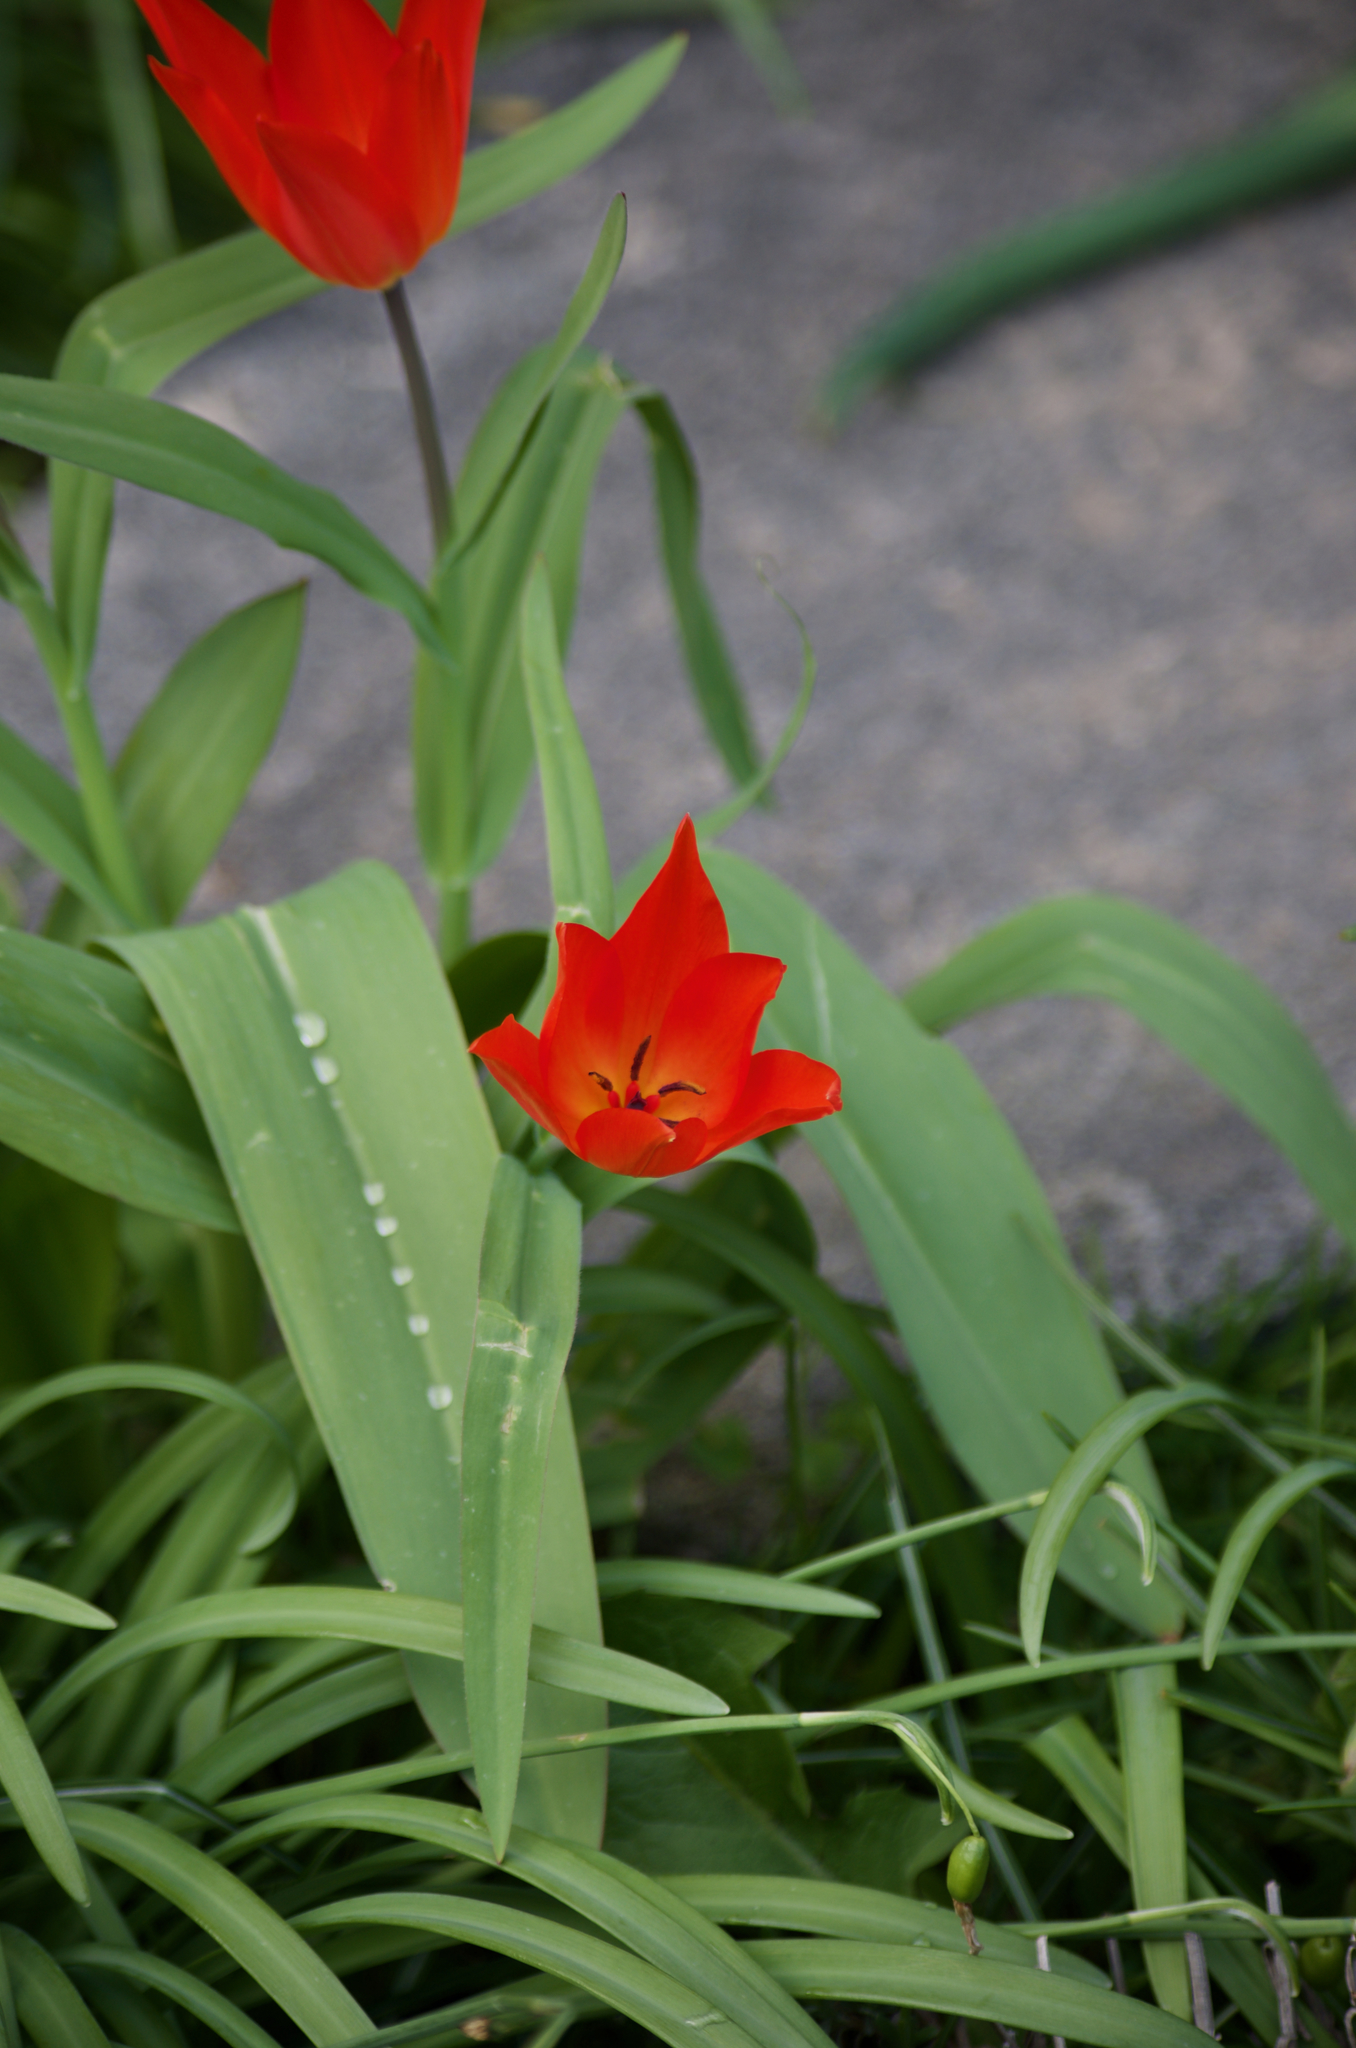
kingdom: Plantae
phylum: Tracheophyta
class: Liliopsida
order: Liliales
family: Liliaceae
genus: Tulipa
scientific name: Tulipa praestans
